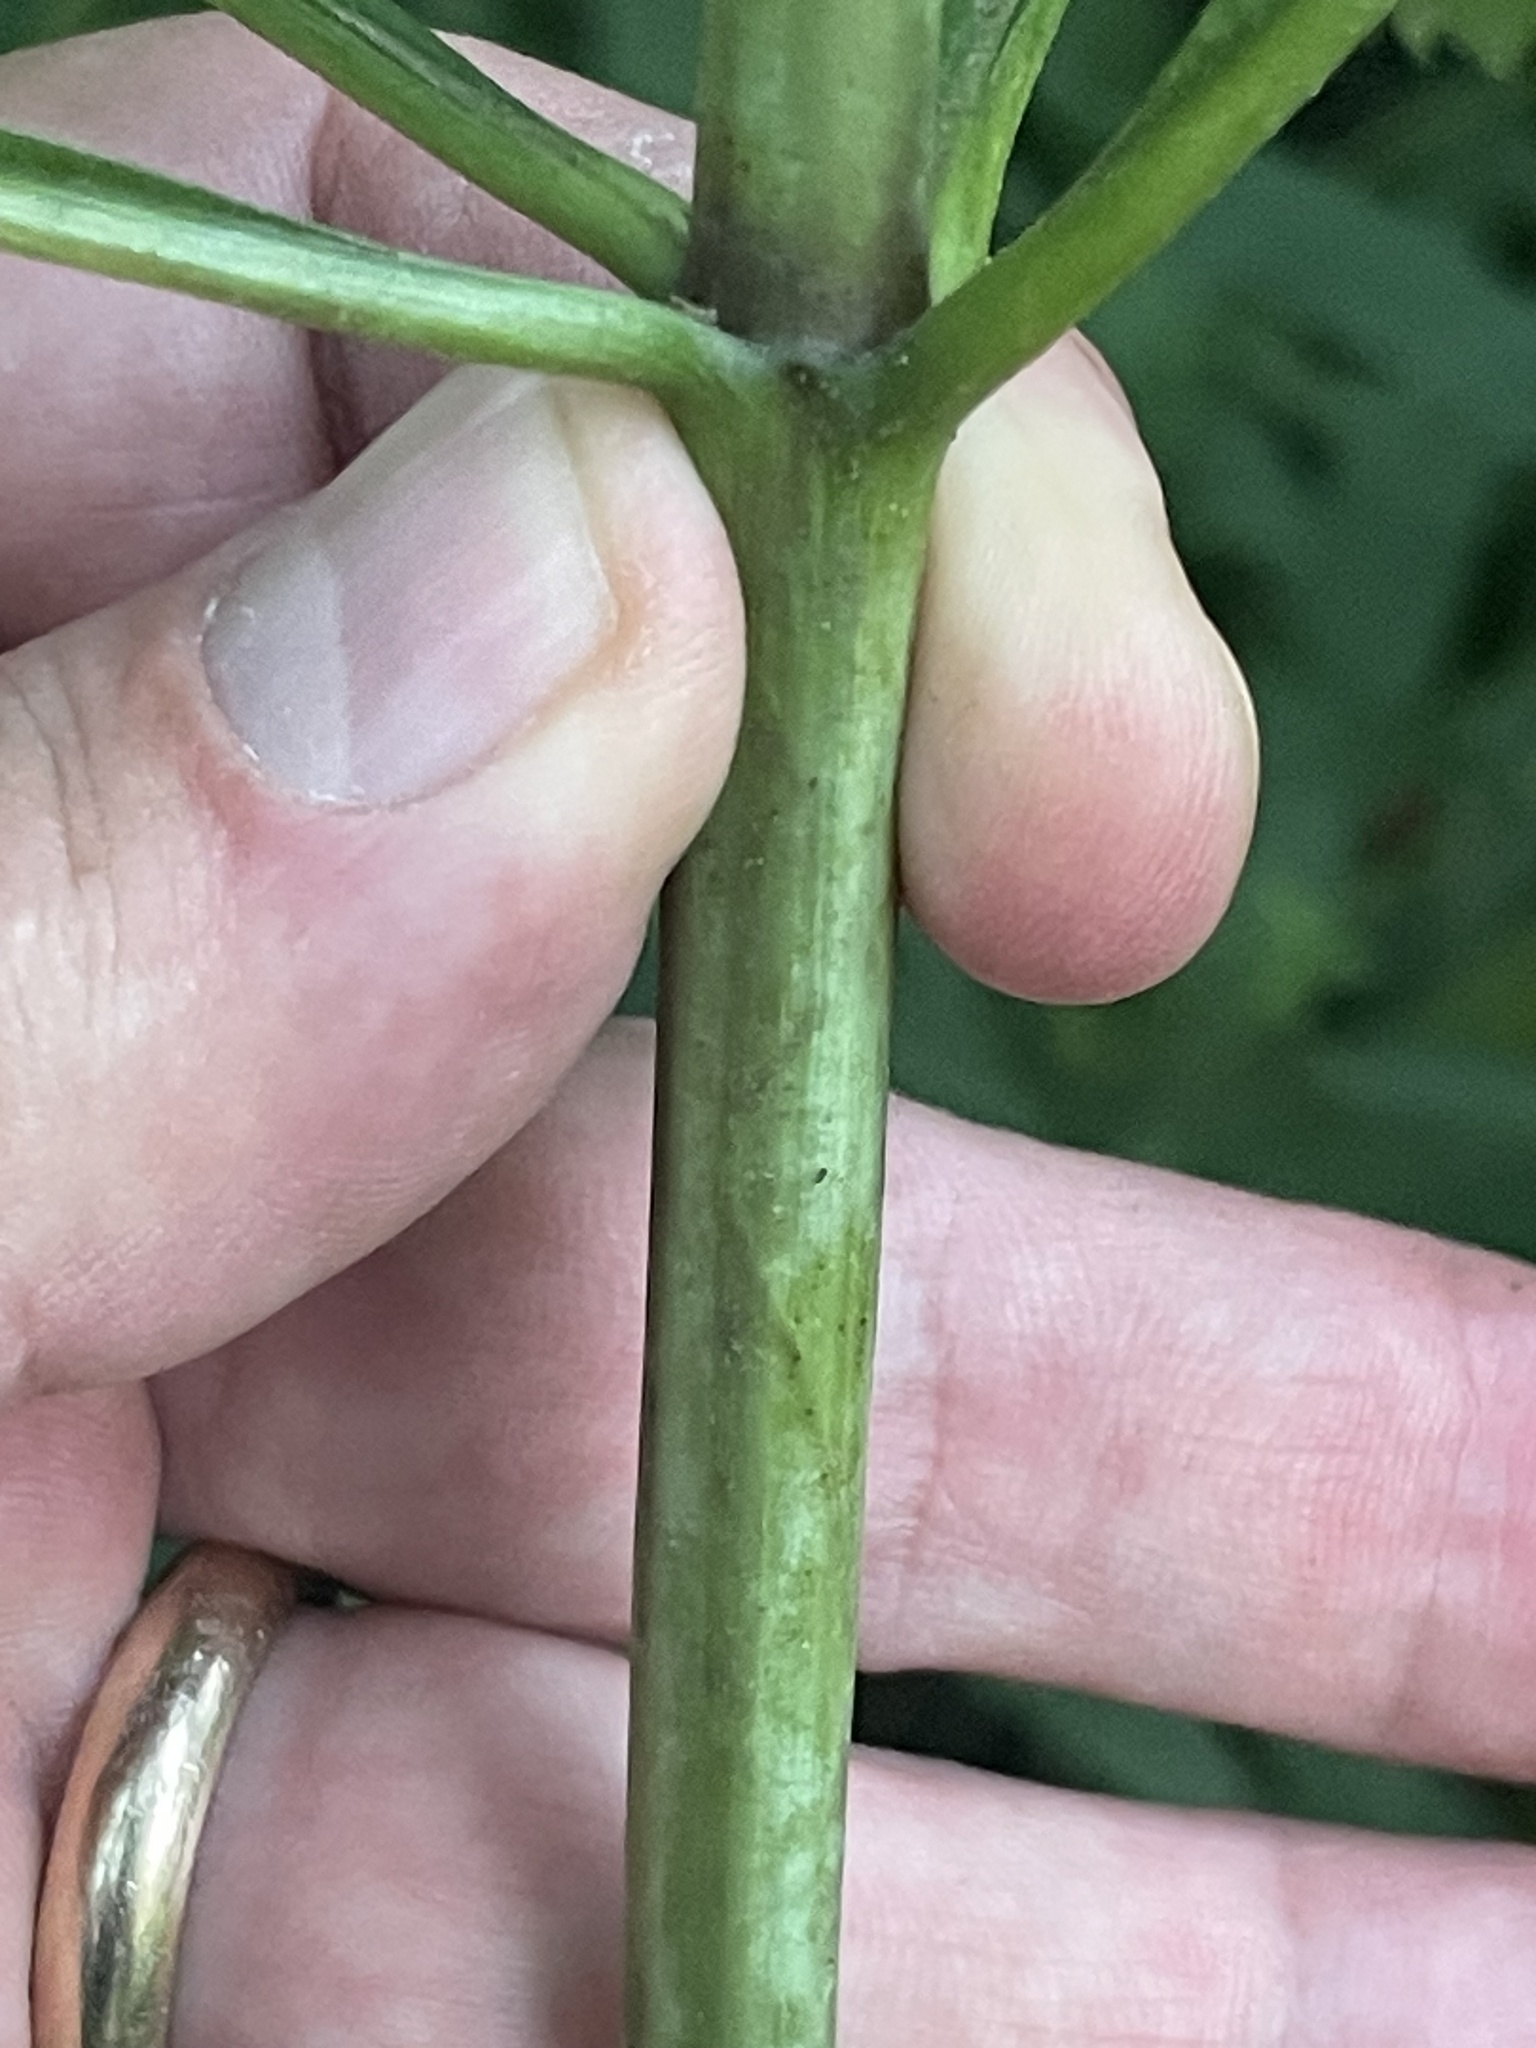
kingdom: Plantae
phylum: Tracheophyta
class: Magnoliopsida
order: Asterales
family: Asteraceae
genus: Eutrochium
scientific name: Eutrochium fistulosum
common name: Trumpetweed
